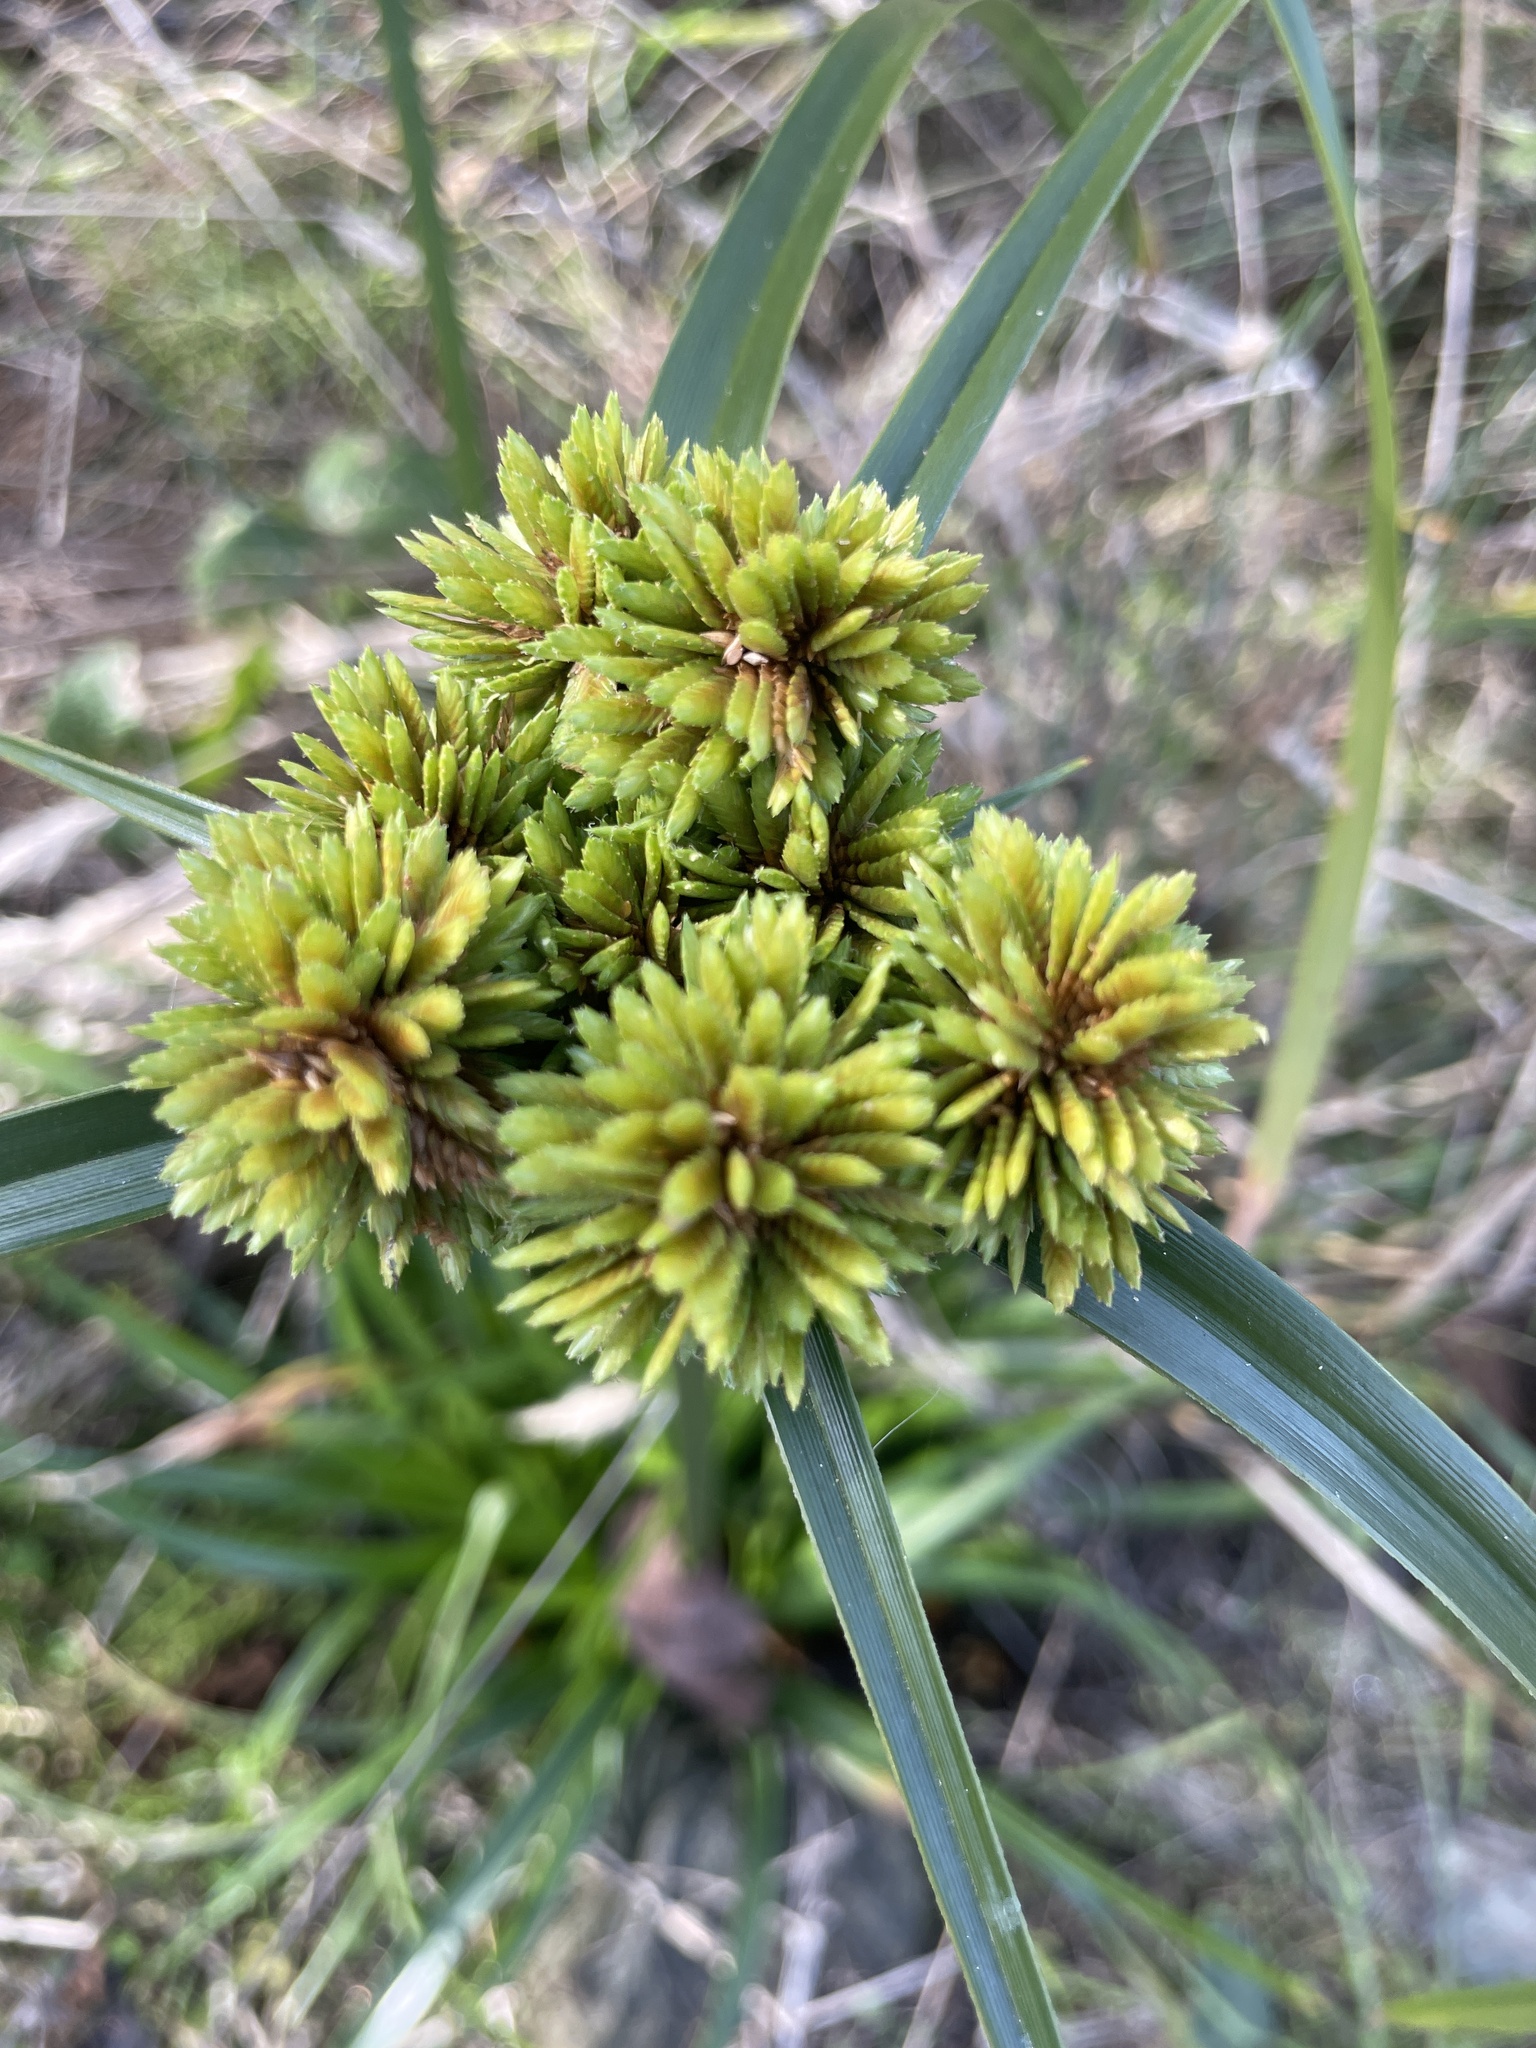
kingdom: Plantae
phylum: Tracheophyta
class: Liliopsida
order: Poales
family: Cyperaceae
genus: Cyperus
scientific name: Cyperus eragrostis
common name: Tall flatsedge
